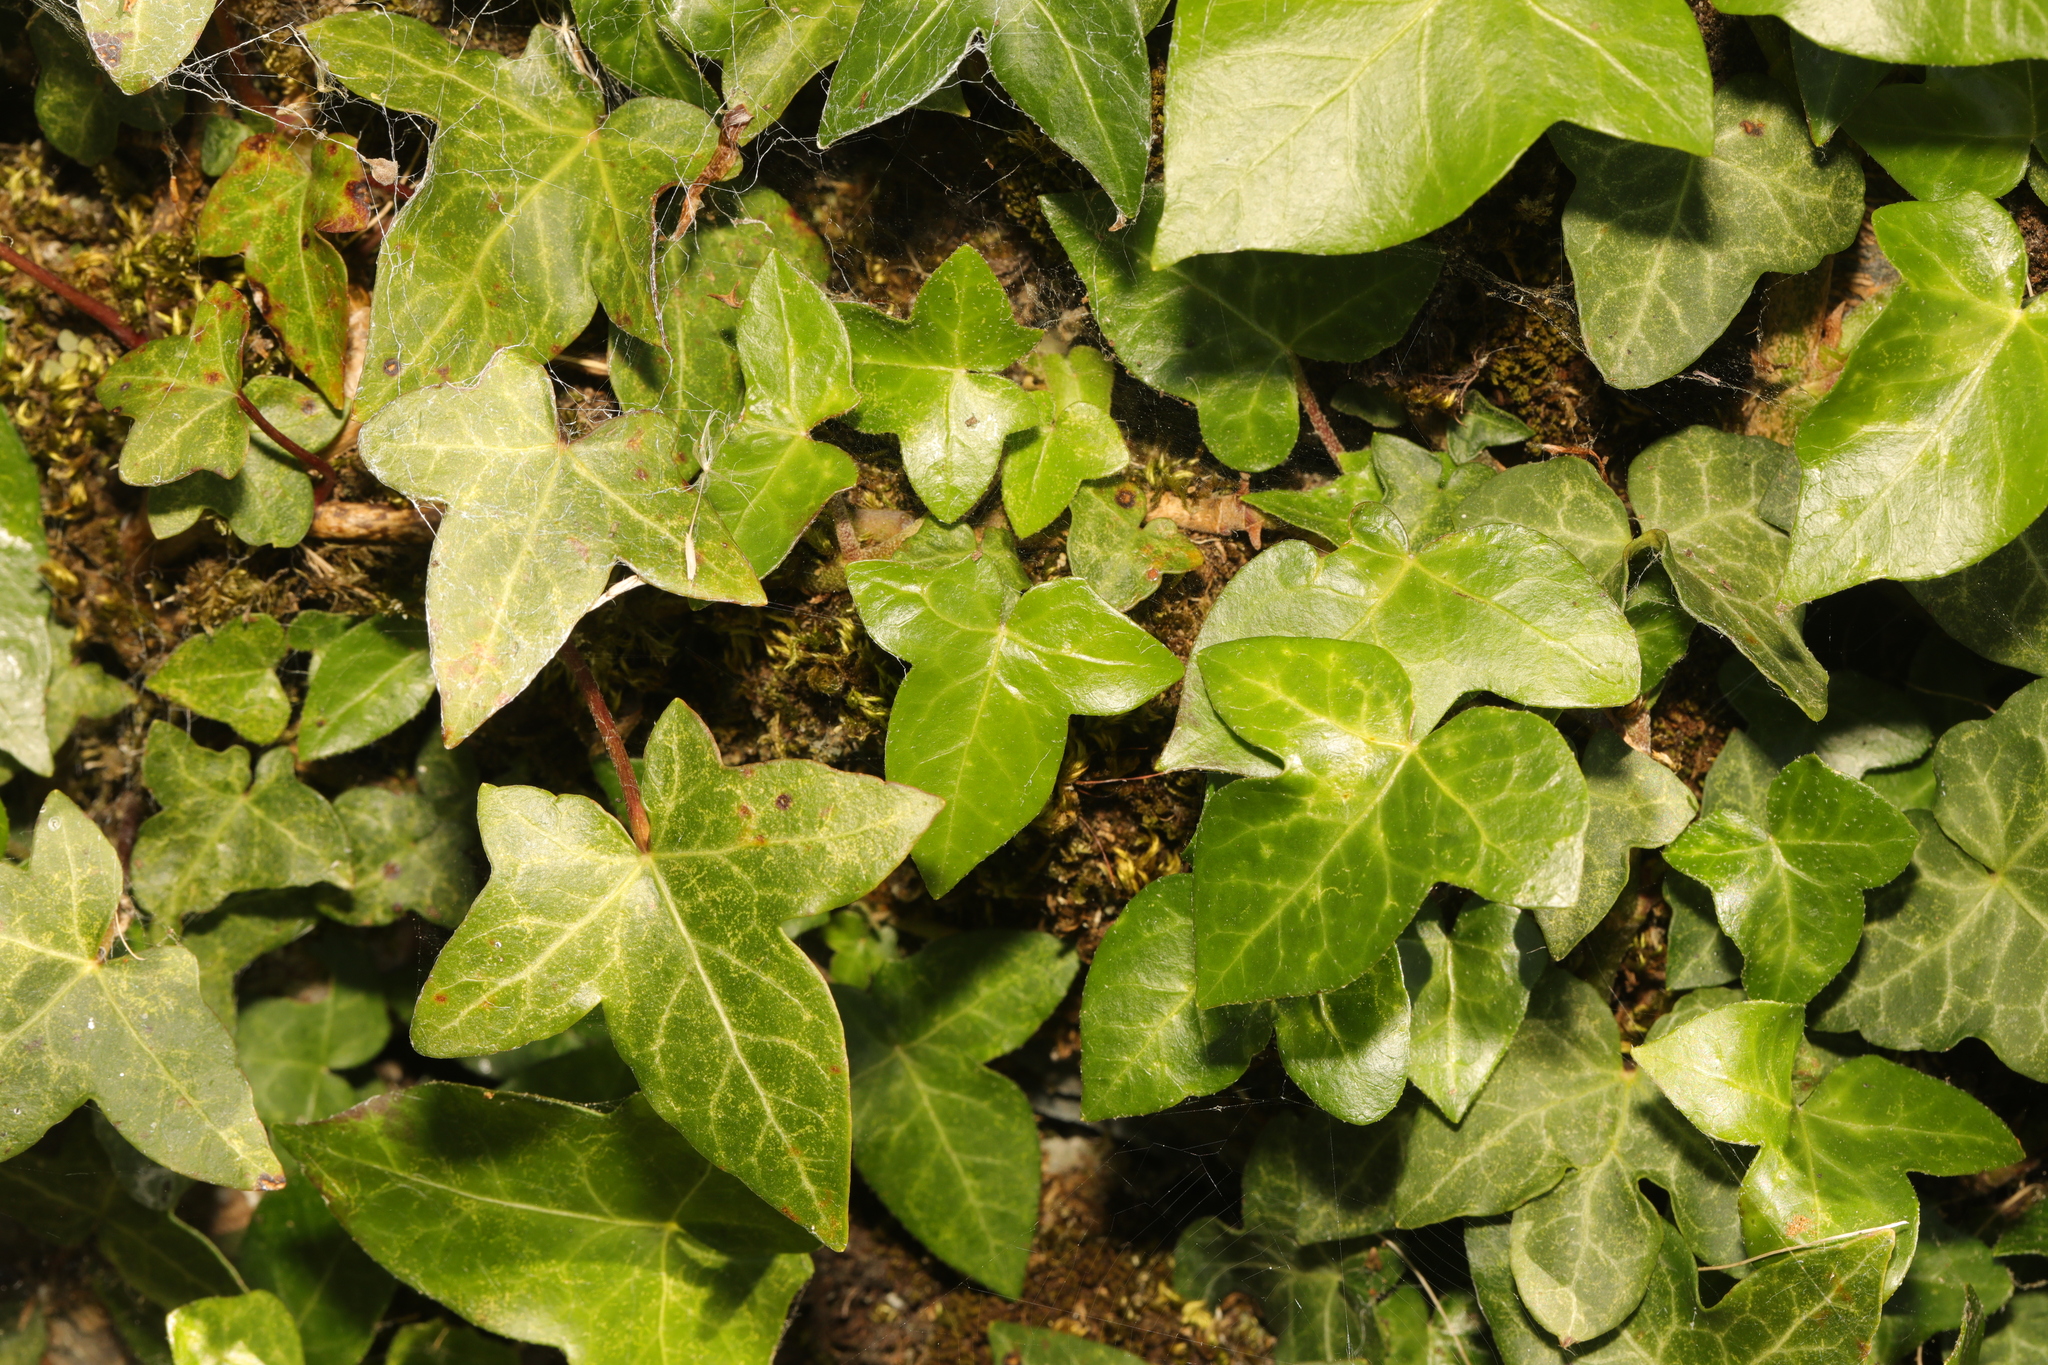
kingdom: Plantae
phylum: Tracheophyta
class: Magnoliopsida
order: Apiales
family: Araliaceae
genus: Hedera
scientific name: Hedera helix
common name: Ivy
